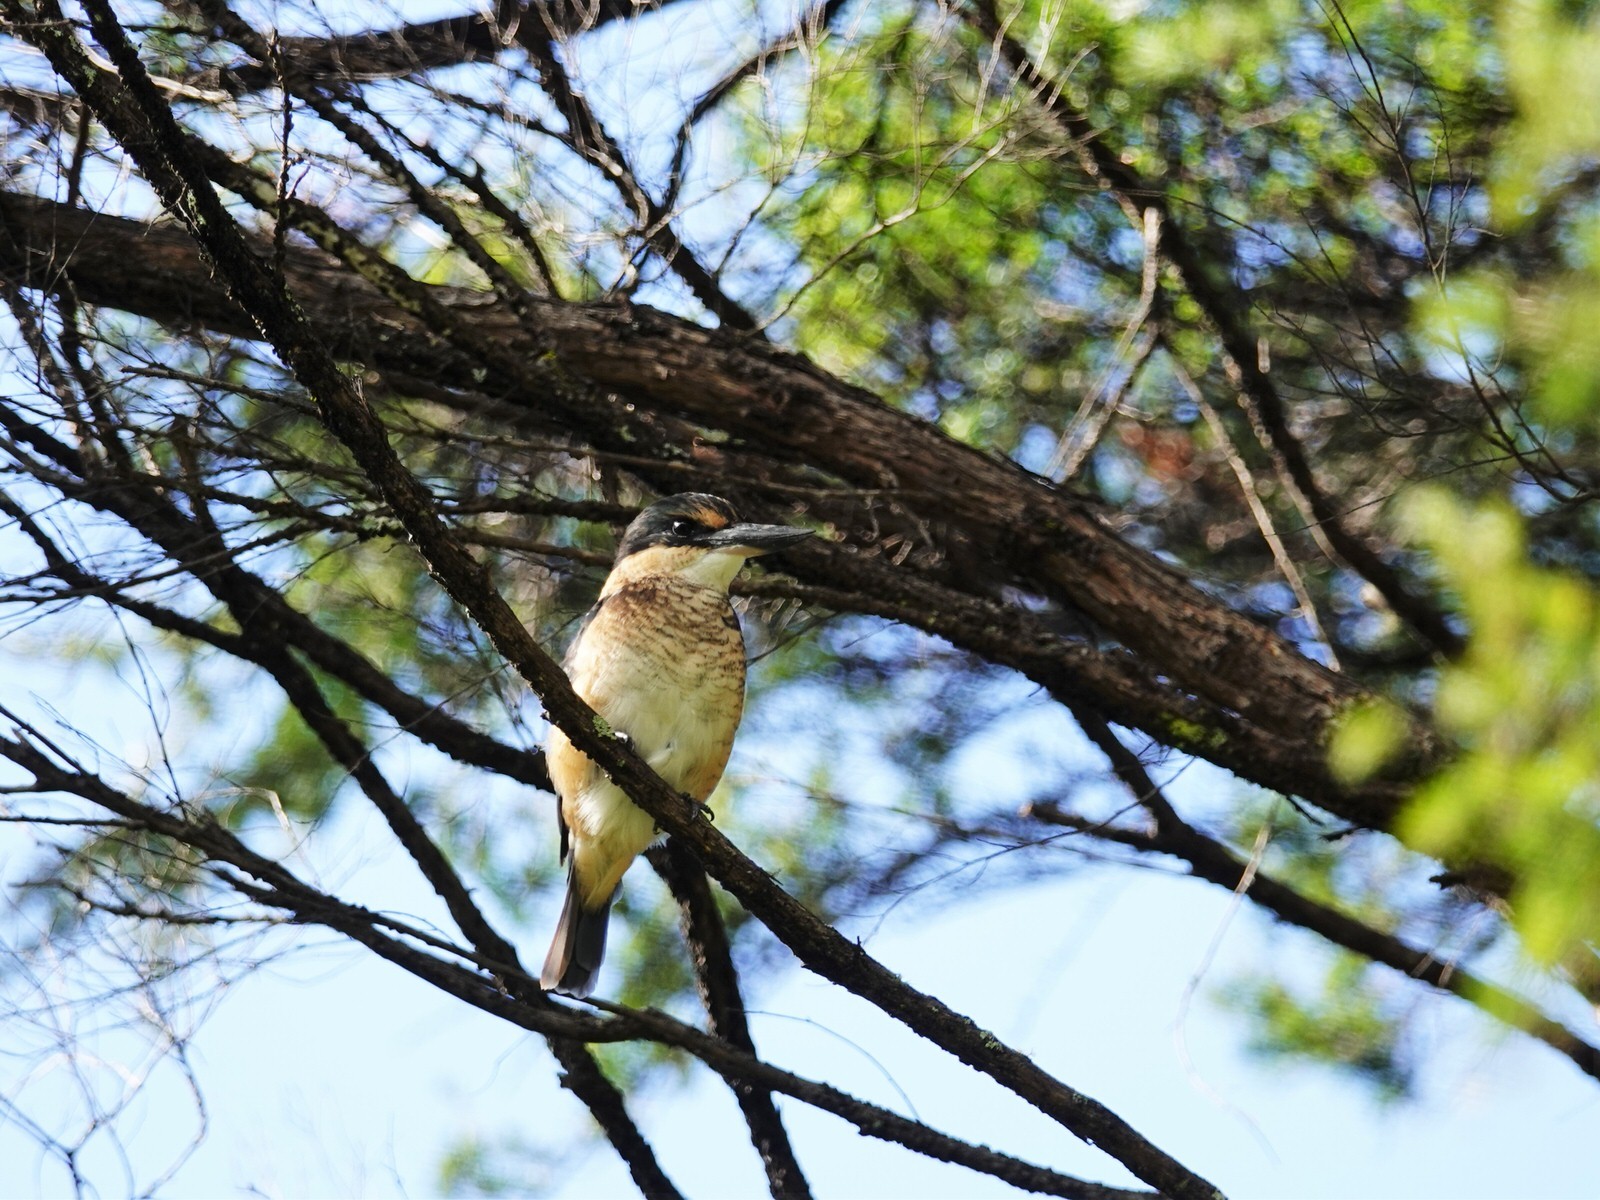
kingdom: Animalia
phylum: Chordata
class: Aves
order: Coraciiformes
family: Alcedinidae
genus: Todiramphus
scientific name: Todiramphus sanctus
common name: Sacred kingfisher
